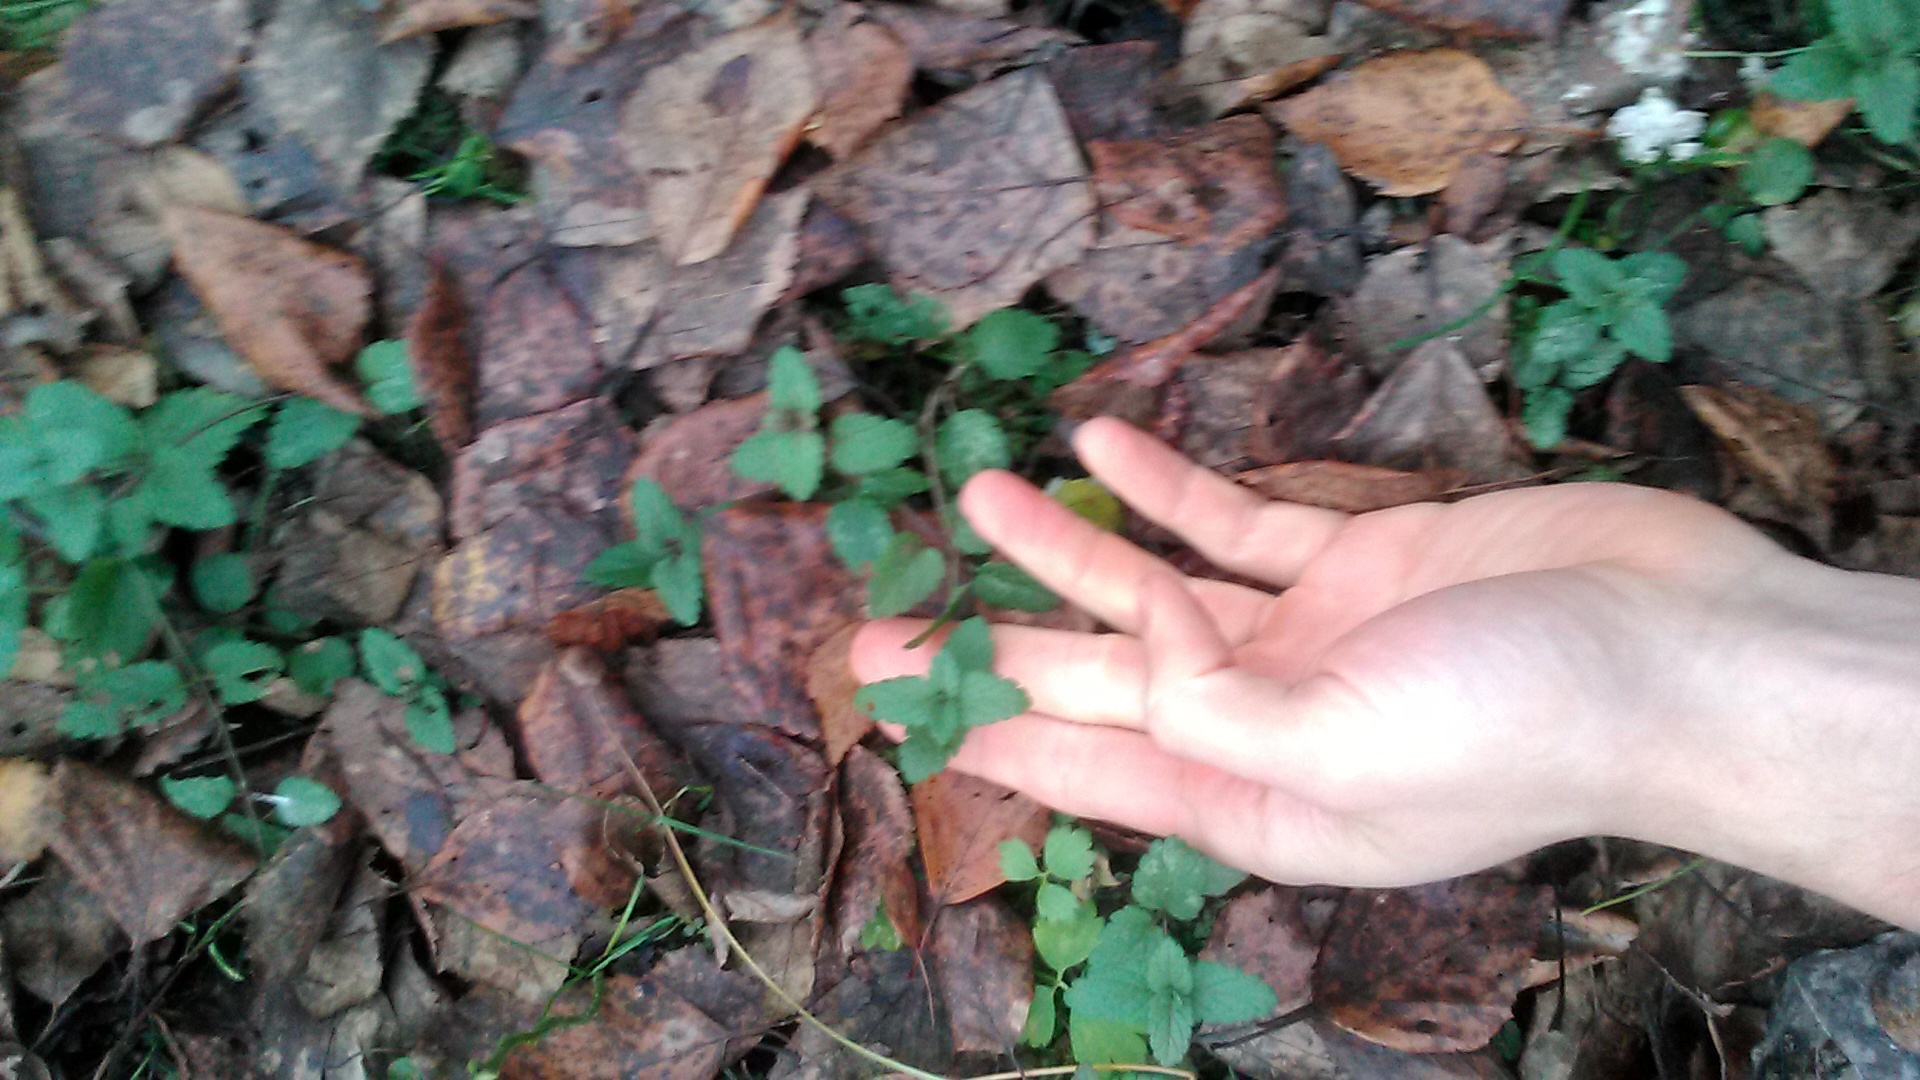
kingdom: Plantae
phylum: Tracheophyta
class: Magnoliopsida
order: Lamiales
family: Plantaginaceae
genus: Veronica
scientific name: Veronica chamaedrys
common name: Germander speedwell
